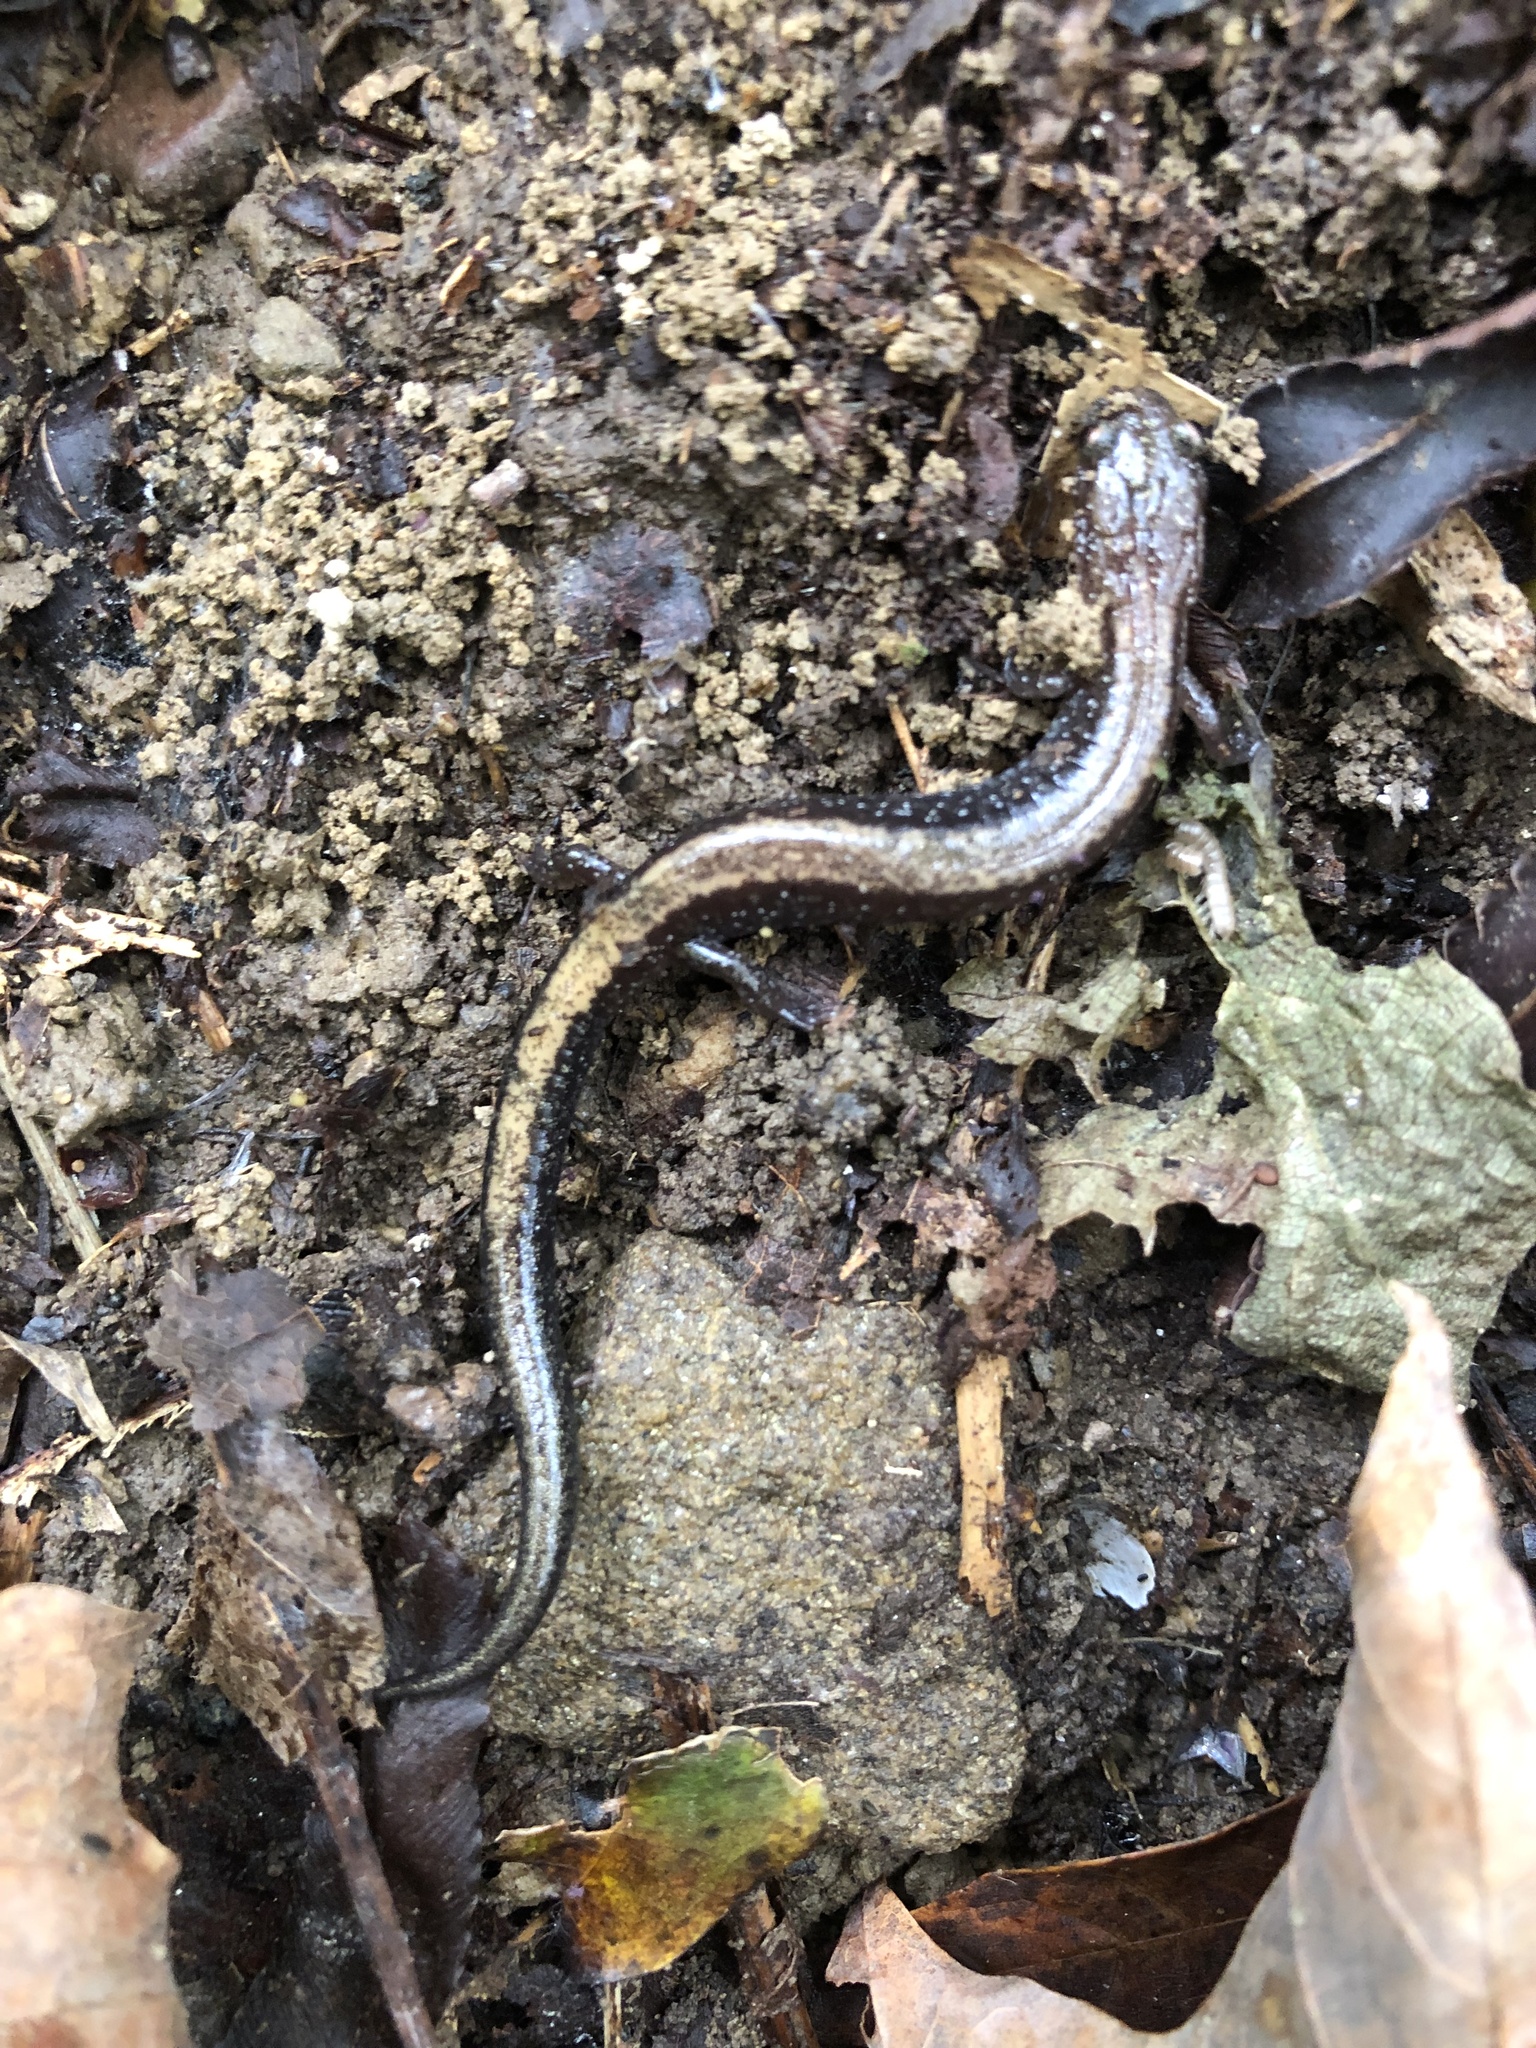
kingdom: Animalia
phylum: Chordata
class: Amphibia
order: Caudata
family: Plethodontidae
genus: Plethodon
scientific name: Plethodon cinereus
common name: Redback salamander
